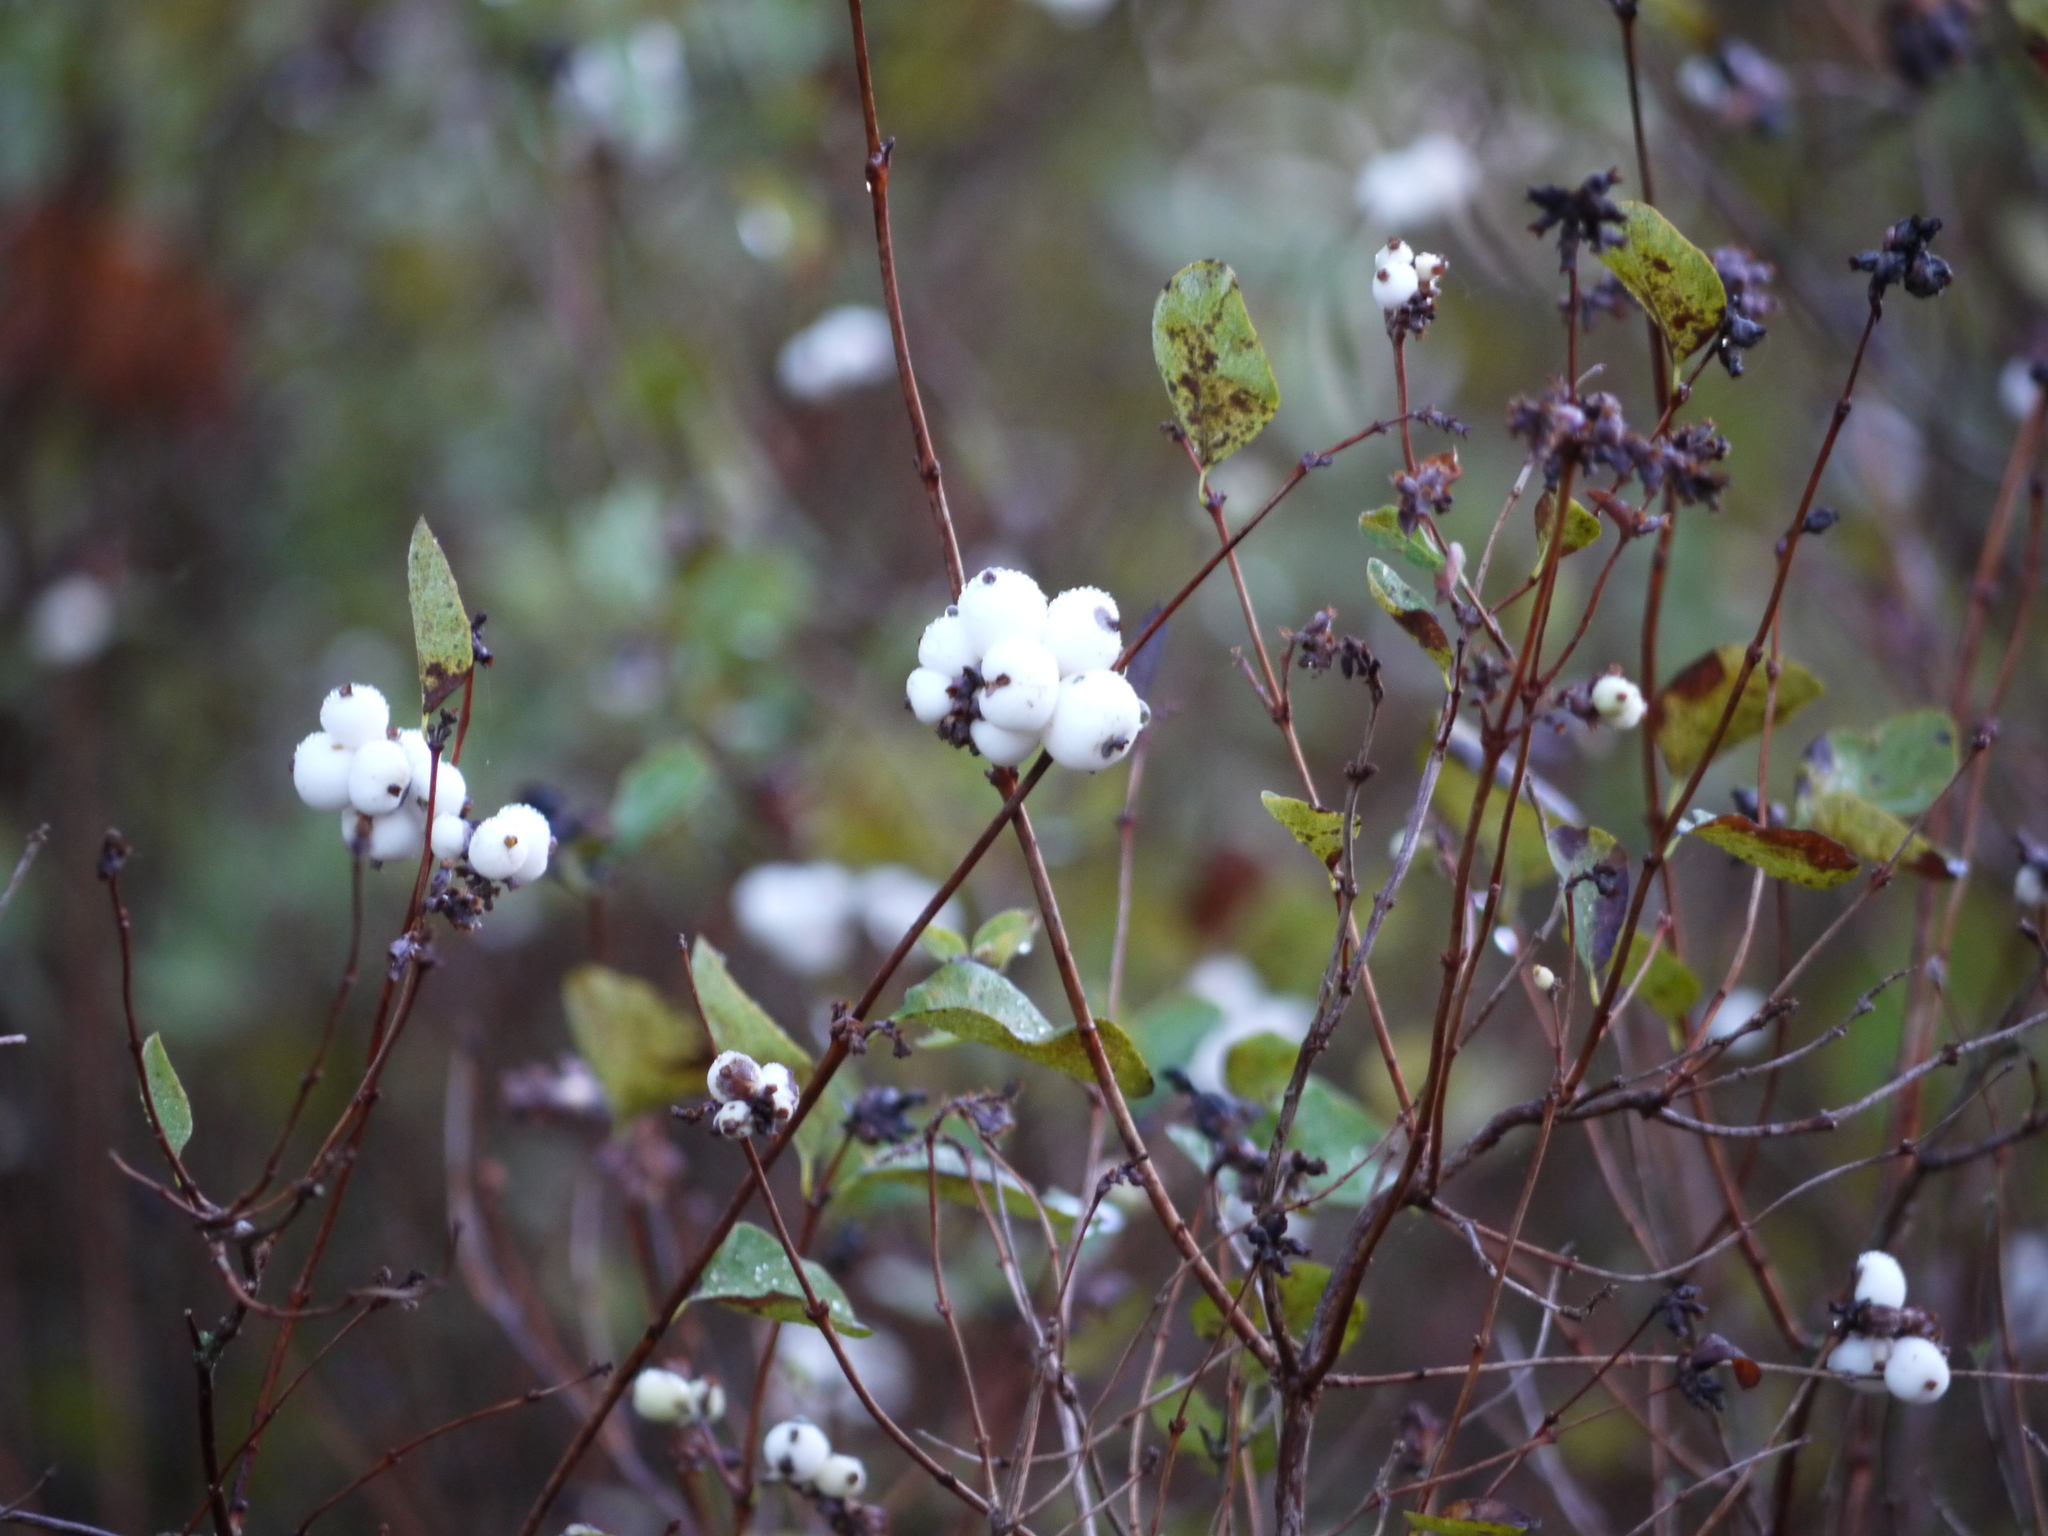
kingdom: Plantae
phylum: Tracheophyta
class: Magnoliopsida
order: Dipsacales
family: Caprifoliaceae
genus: Symphoricarpos
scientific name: Symphoricarpos albus
